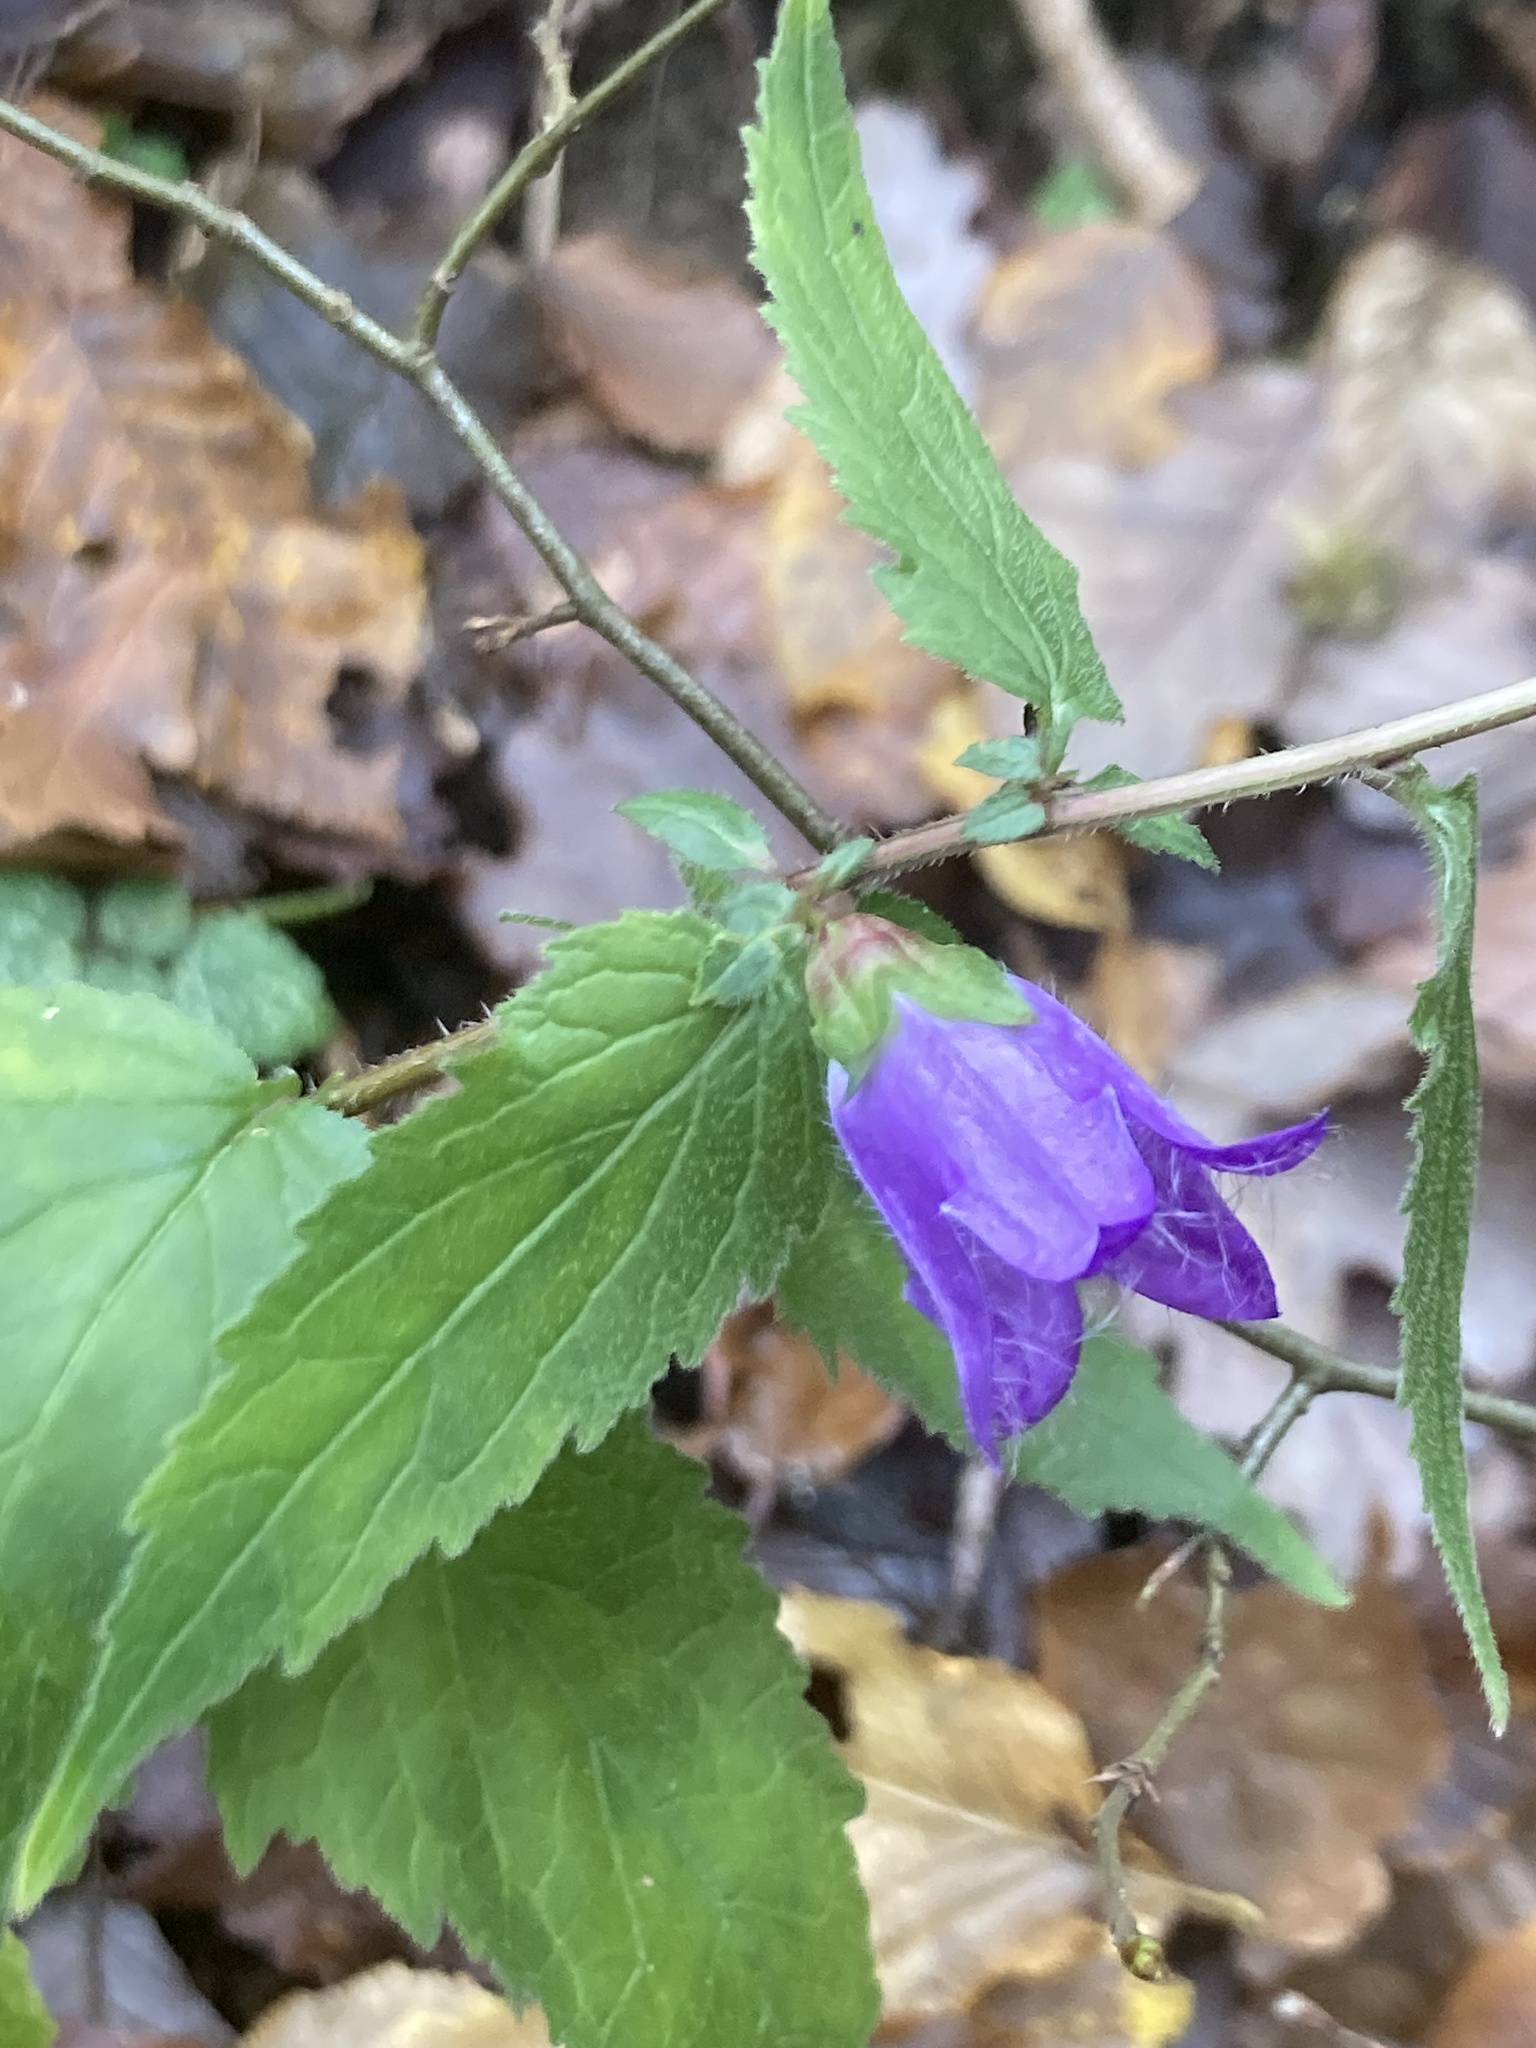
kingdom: Plantae
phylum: Tracheophyta
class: Magnoliopsida
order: Asterales
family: Campanulaceae
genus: Campanula
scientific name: Campanula trachelium
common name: Nettle-leaved bellflower
